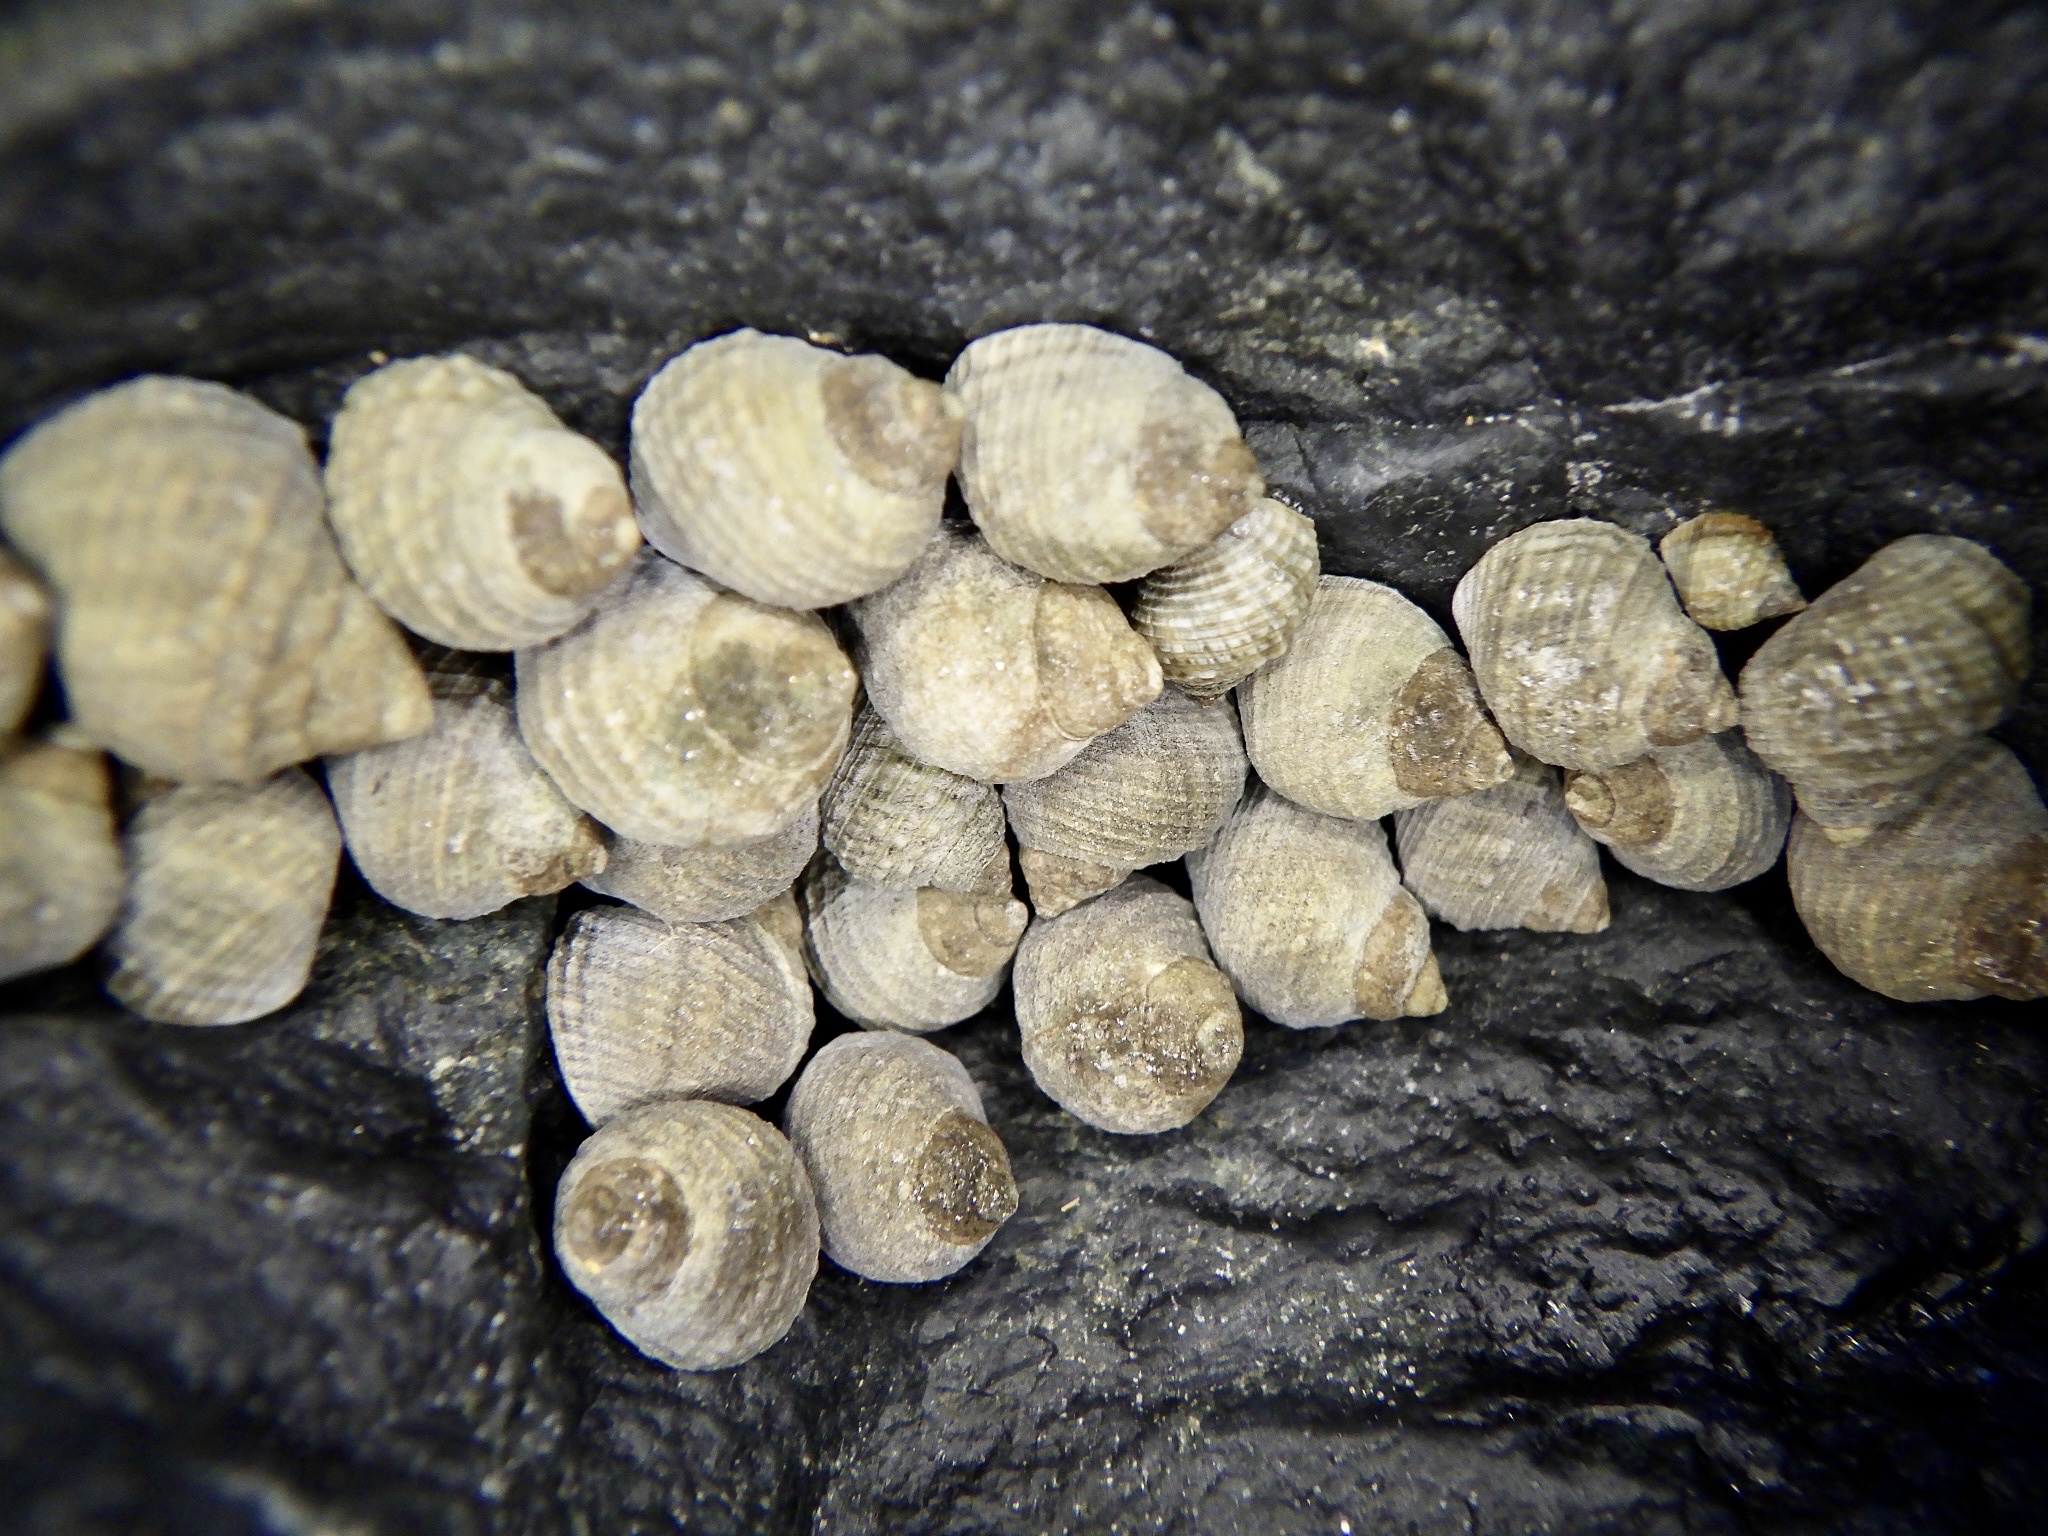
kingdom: Animalia
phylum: Mollusca
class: Gastropoda
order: Littorinimorpha
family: Littorinidae
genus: Echinolittorina
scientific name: Echinolittorina radiata
